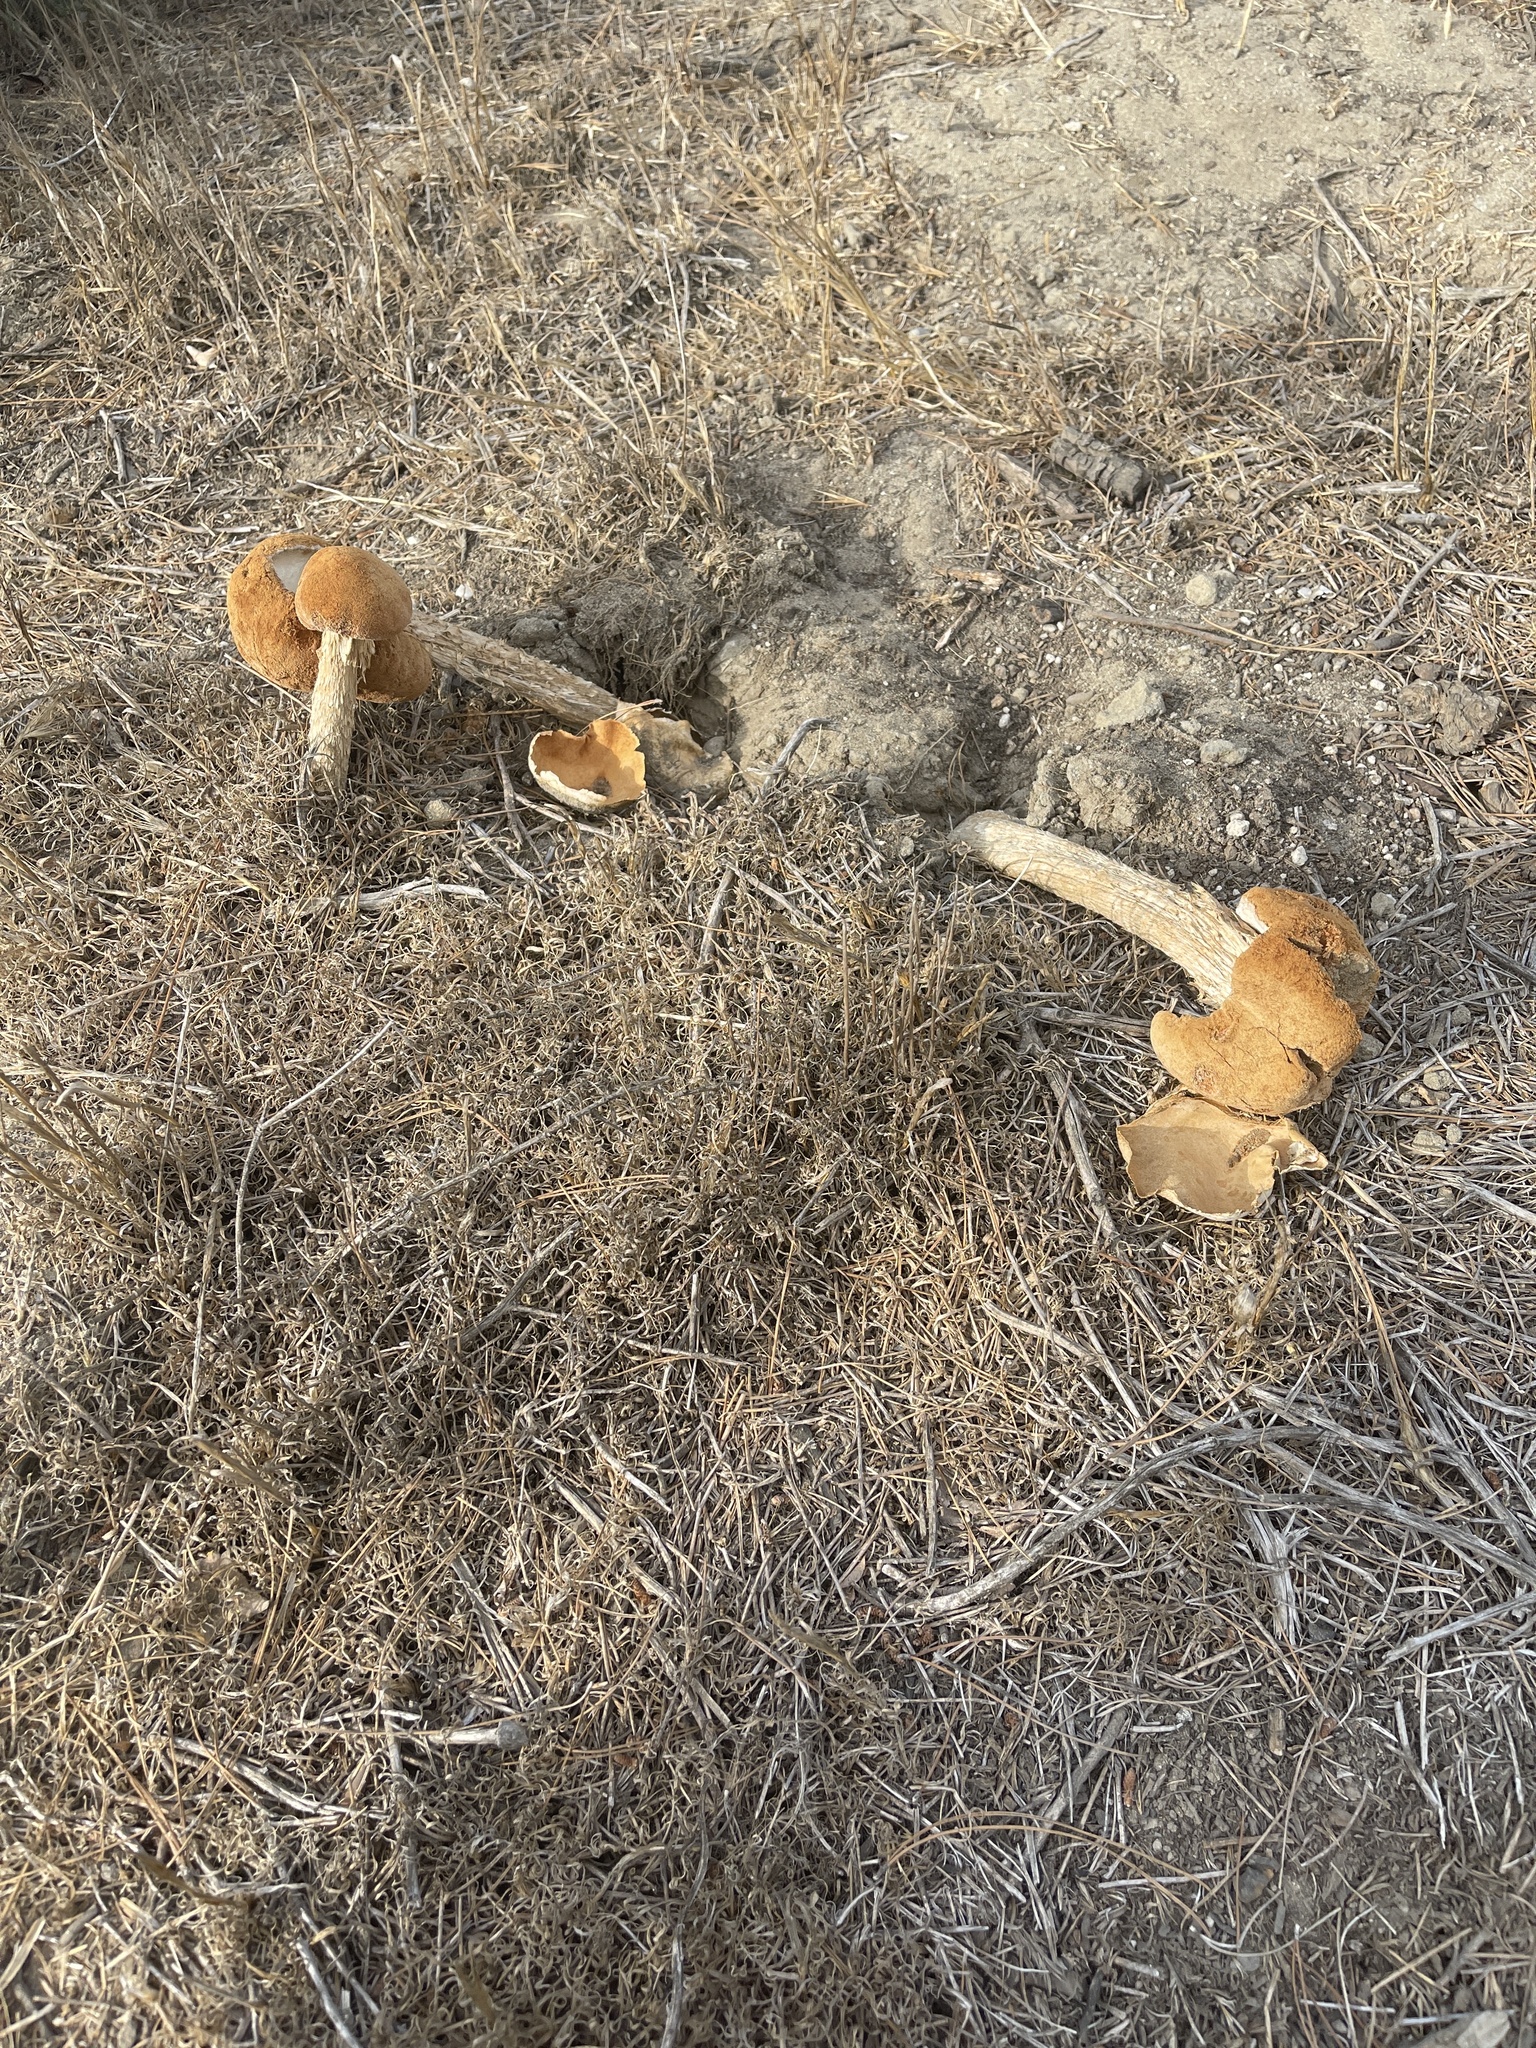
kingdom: Fungi
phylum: Basidiomycota
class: Agaricomycetes
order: Agaricales
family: Agaricaceae
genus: Battarrea
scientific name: Battarrea phalloides
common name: Sandy stiltball
